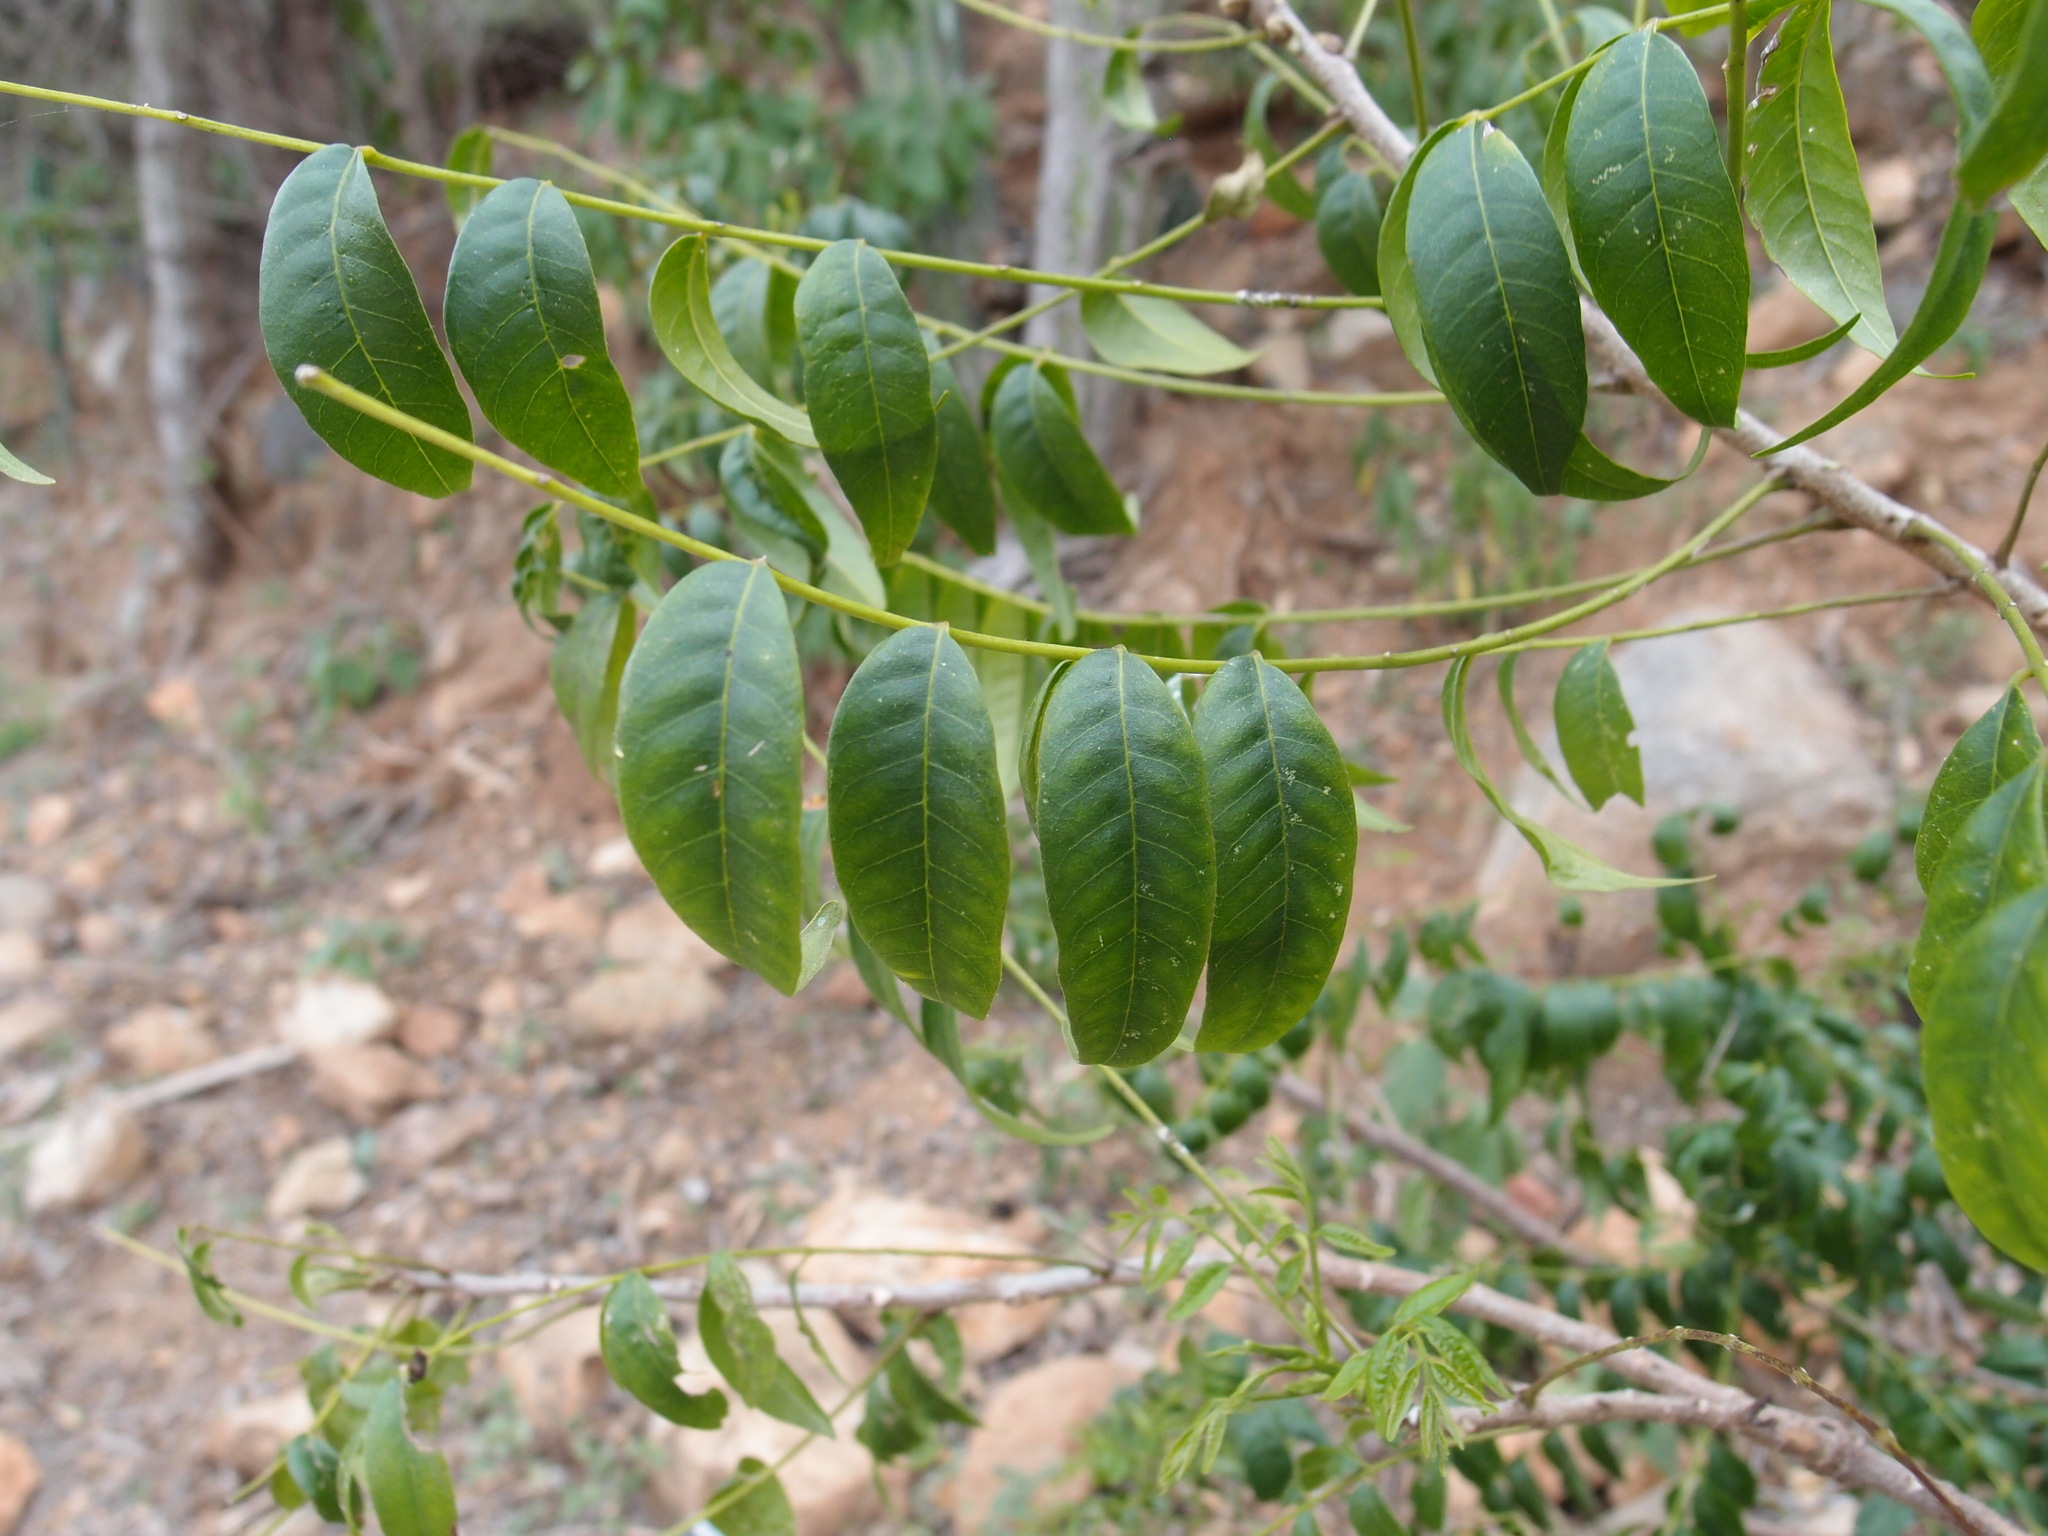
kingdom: Plantae
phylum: Tracheophyta
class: Magnoliopsida
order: Sapindales
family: Meliaceae
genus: Trichilia
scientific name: Trichilia hirta
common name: Red-cedar
